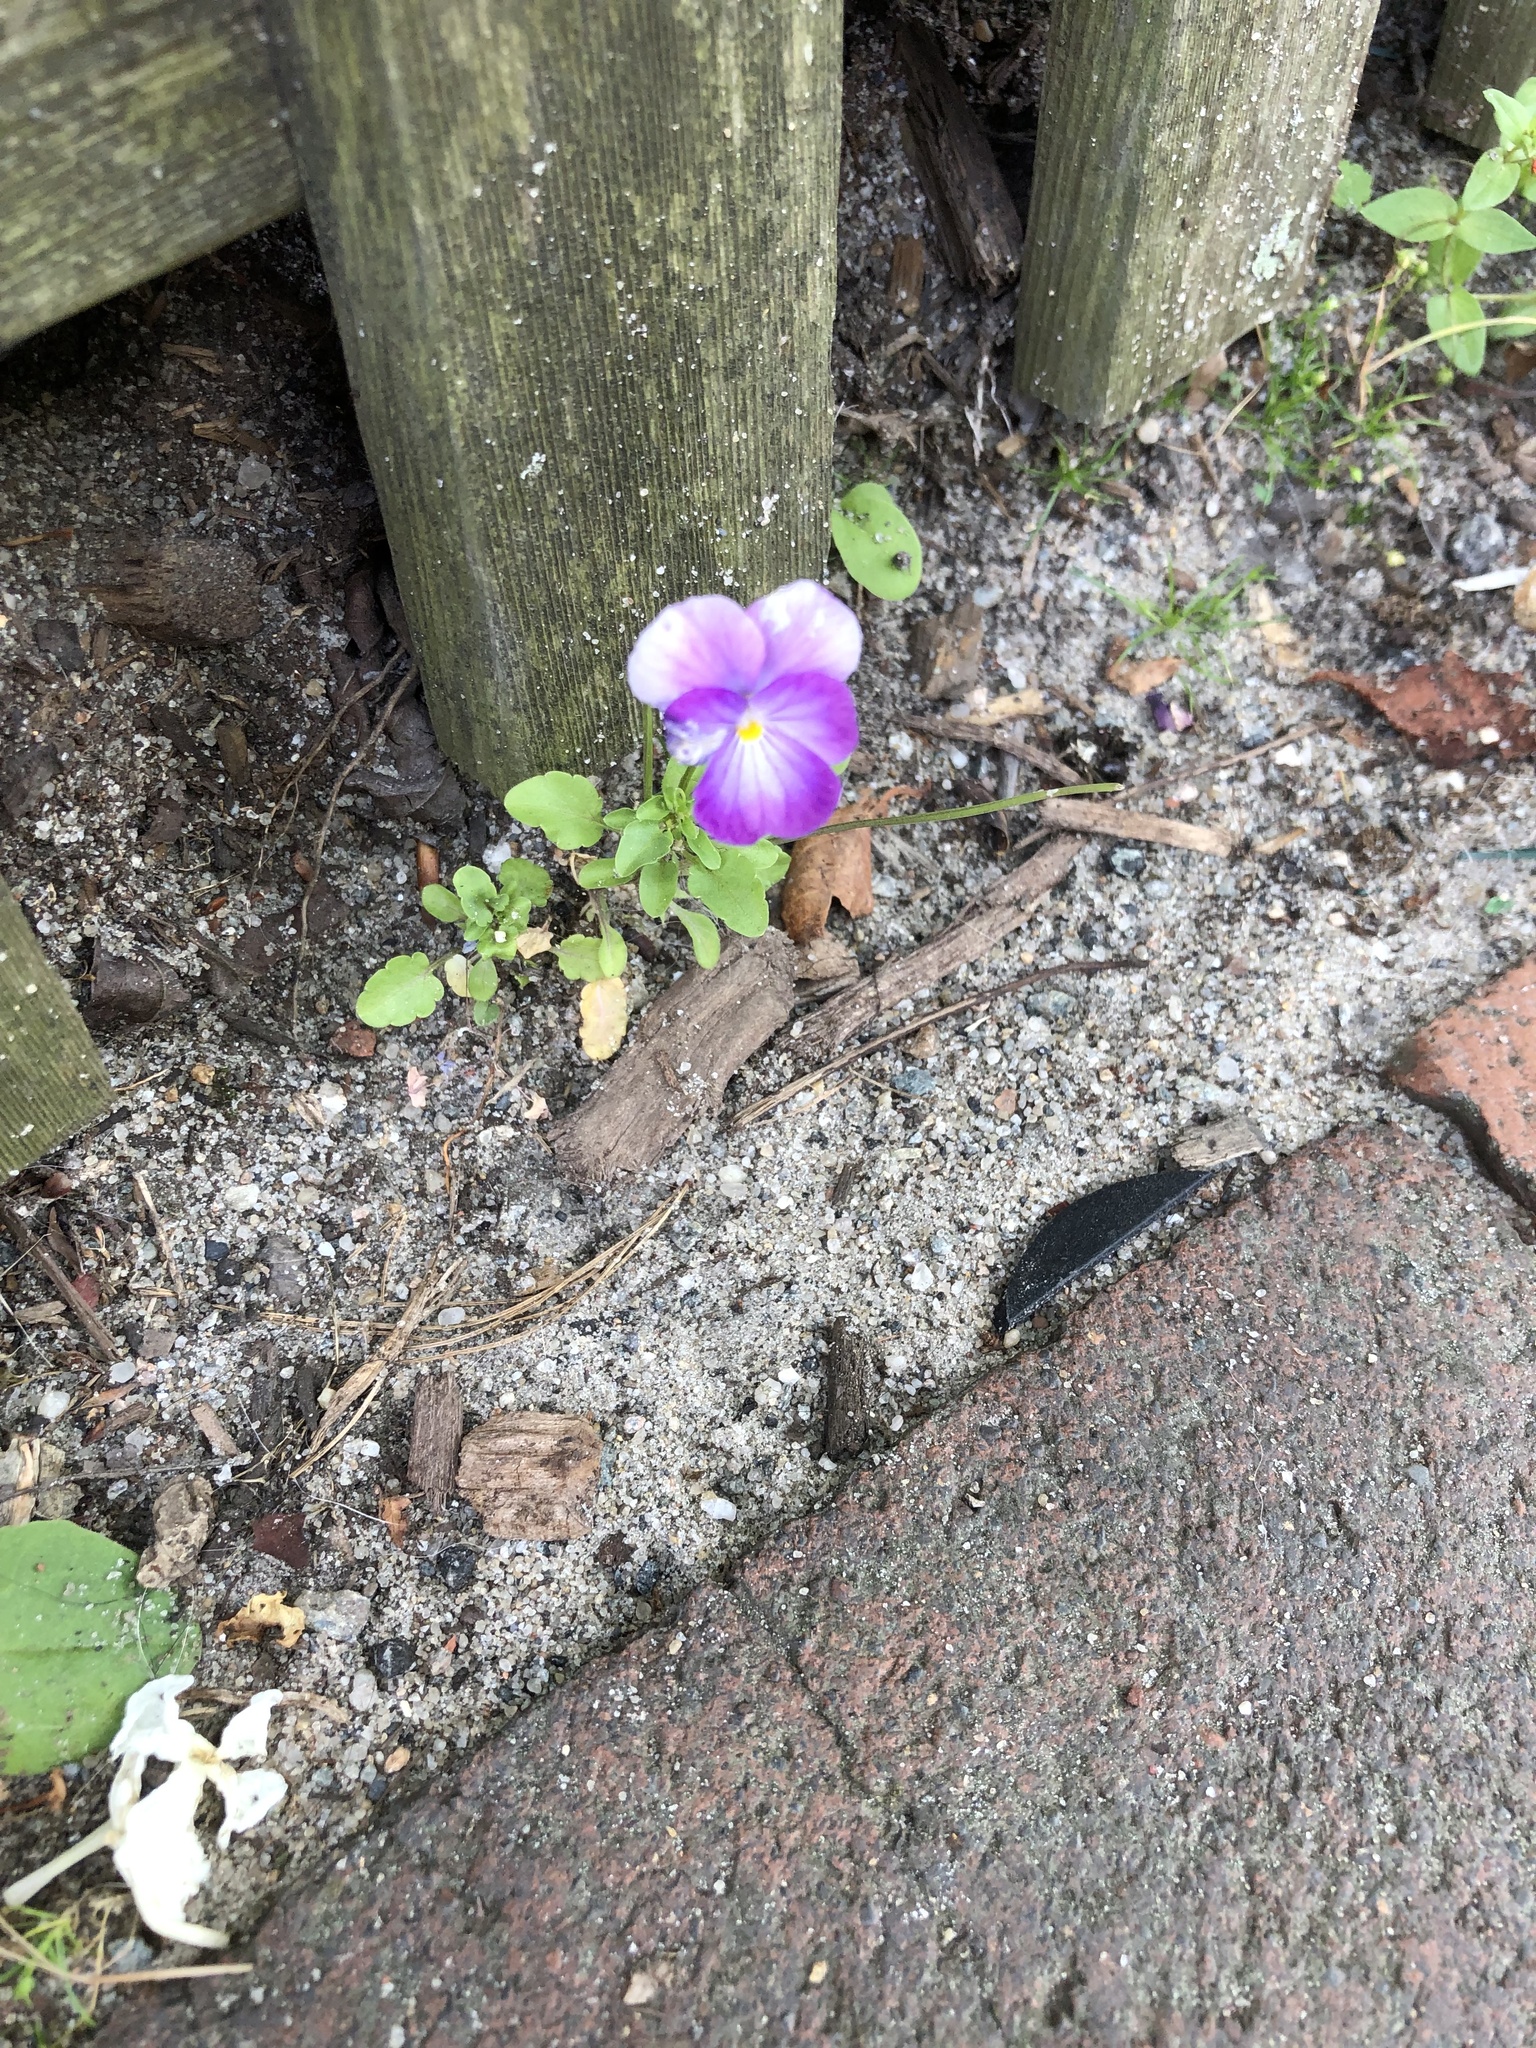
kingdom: Plantae
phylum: Tracheophyta
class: Magnoliopsida
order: Malpighiales
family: Violaceae
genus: Viola
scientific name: Viola williamsii
